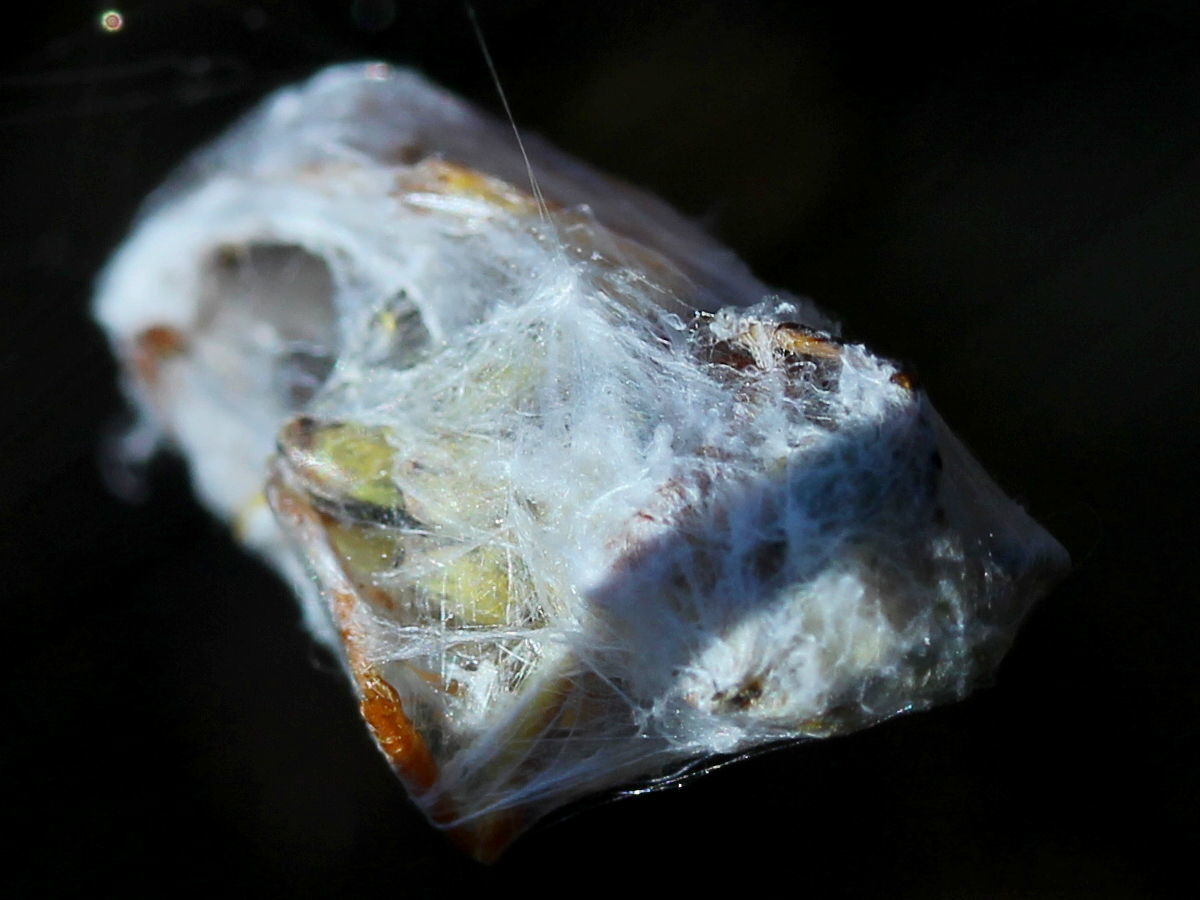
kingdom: Animalia
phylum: Arthropoda
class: Arachnida
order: Araneae
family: Araneidae
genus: Argiope
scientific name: Argiope trifasciata
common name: Banded garden spider
